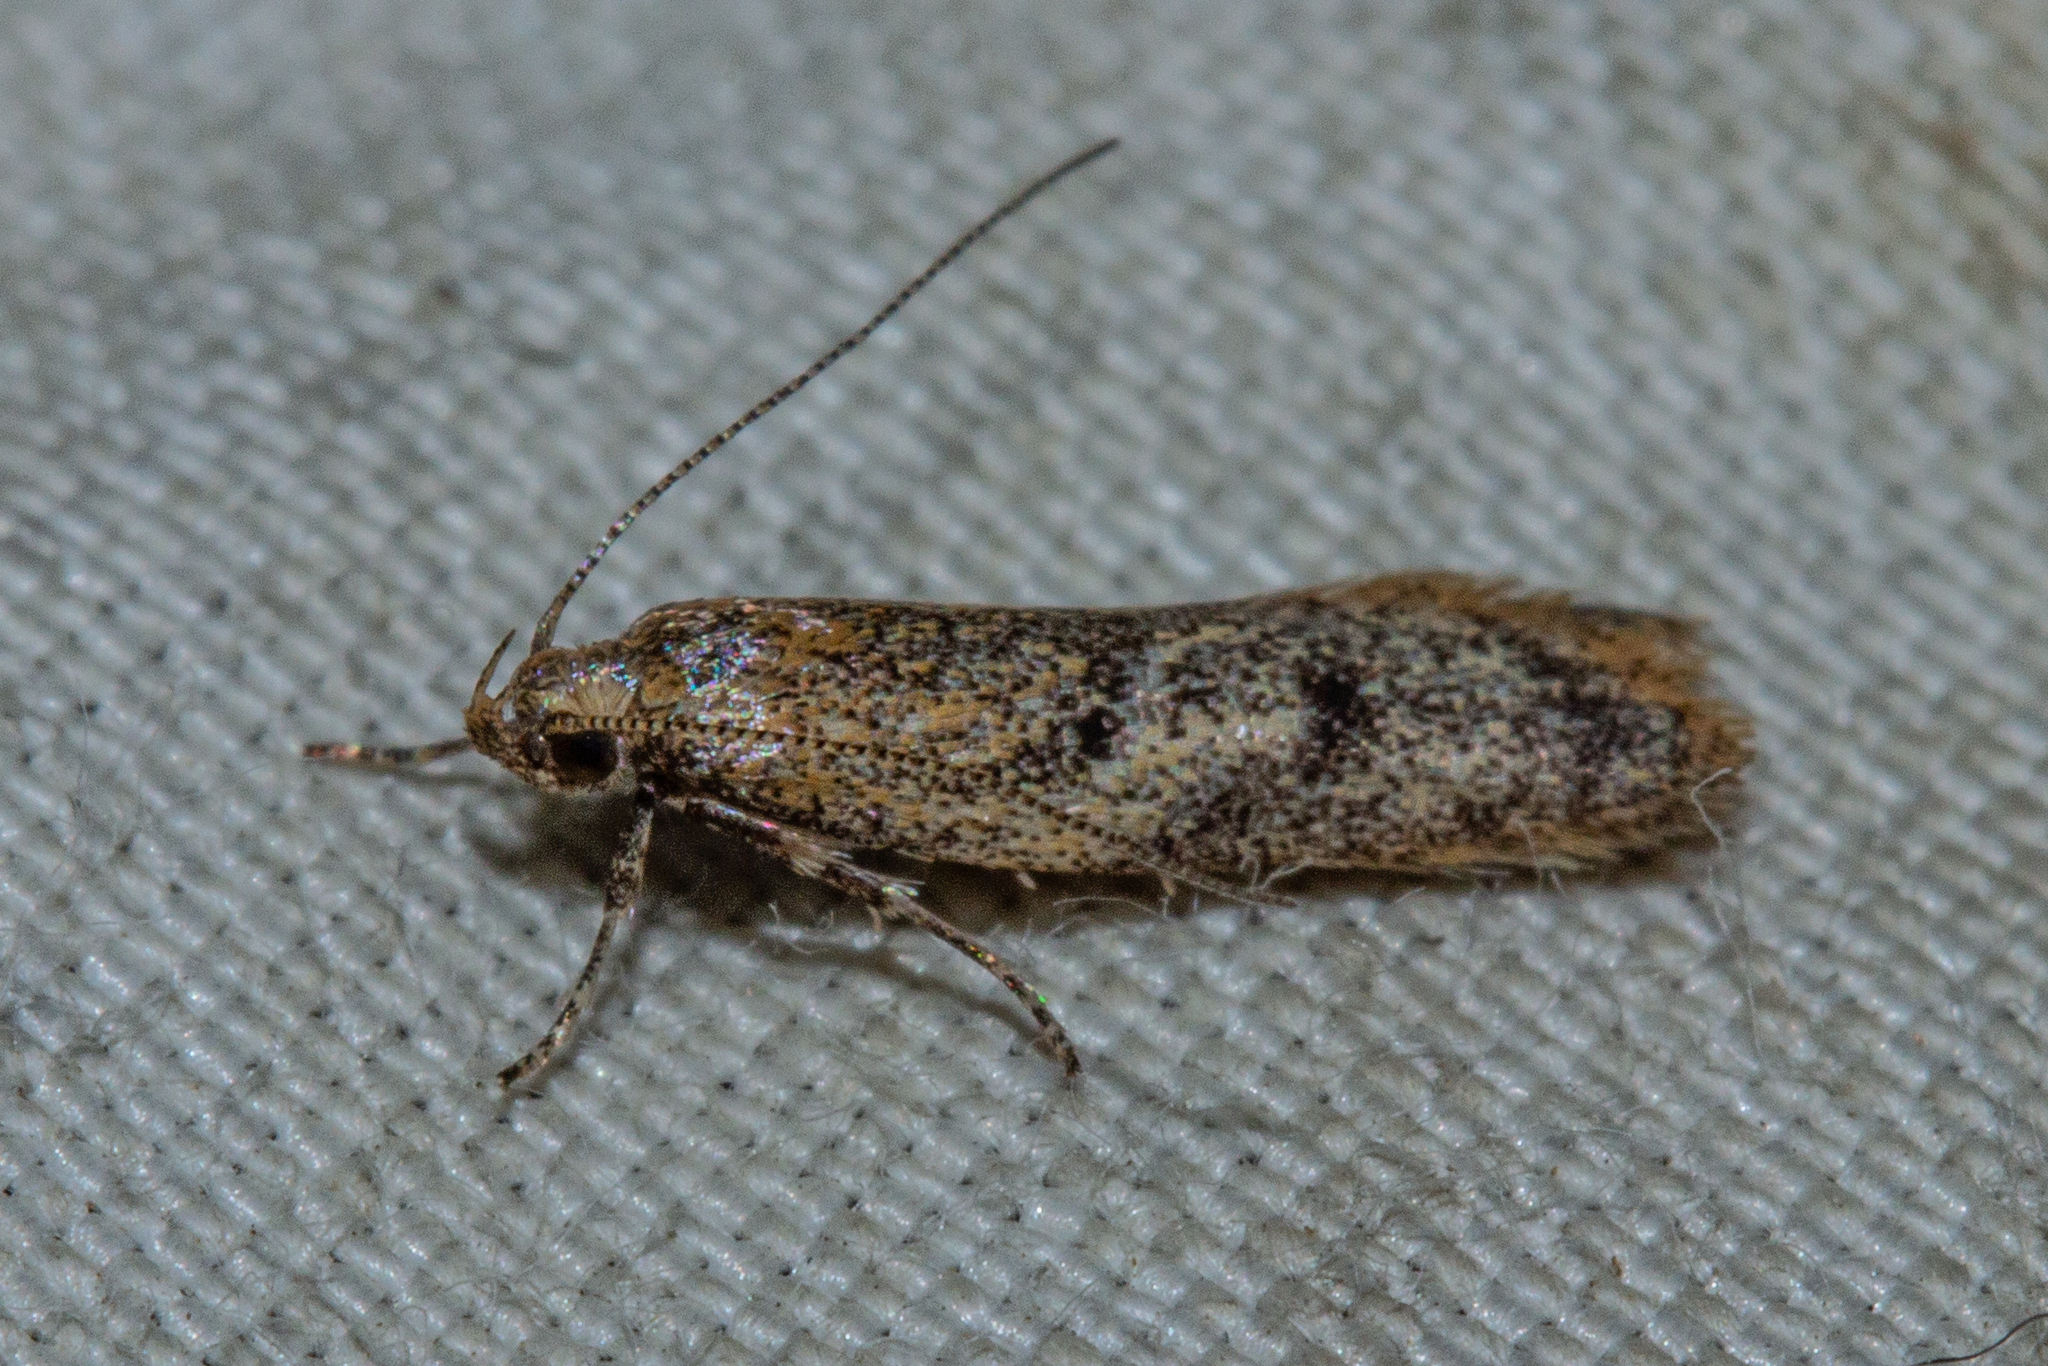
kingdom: Animalia
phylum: Arthropoda
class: Insecta
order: Lepidoptera
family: Oecophoridae
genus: Gymnobathra
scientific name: Gymnobathra tholodella
